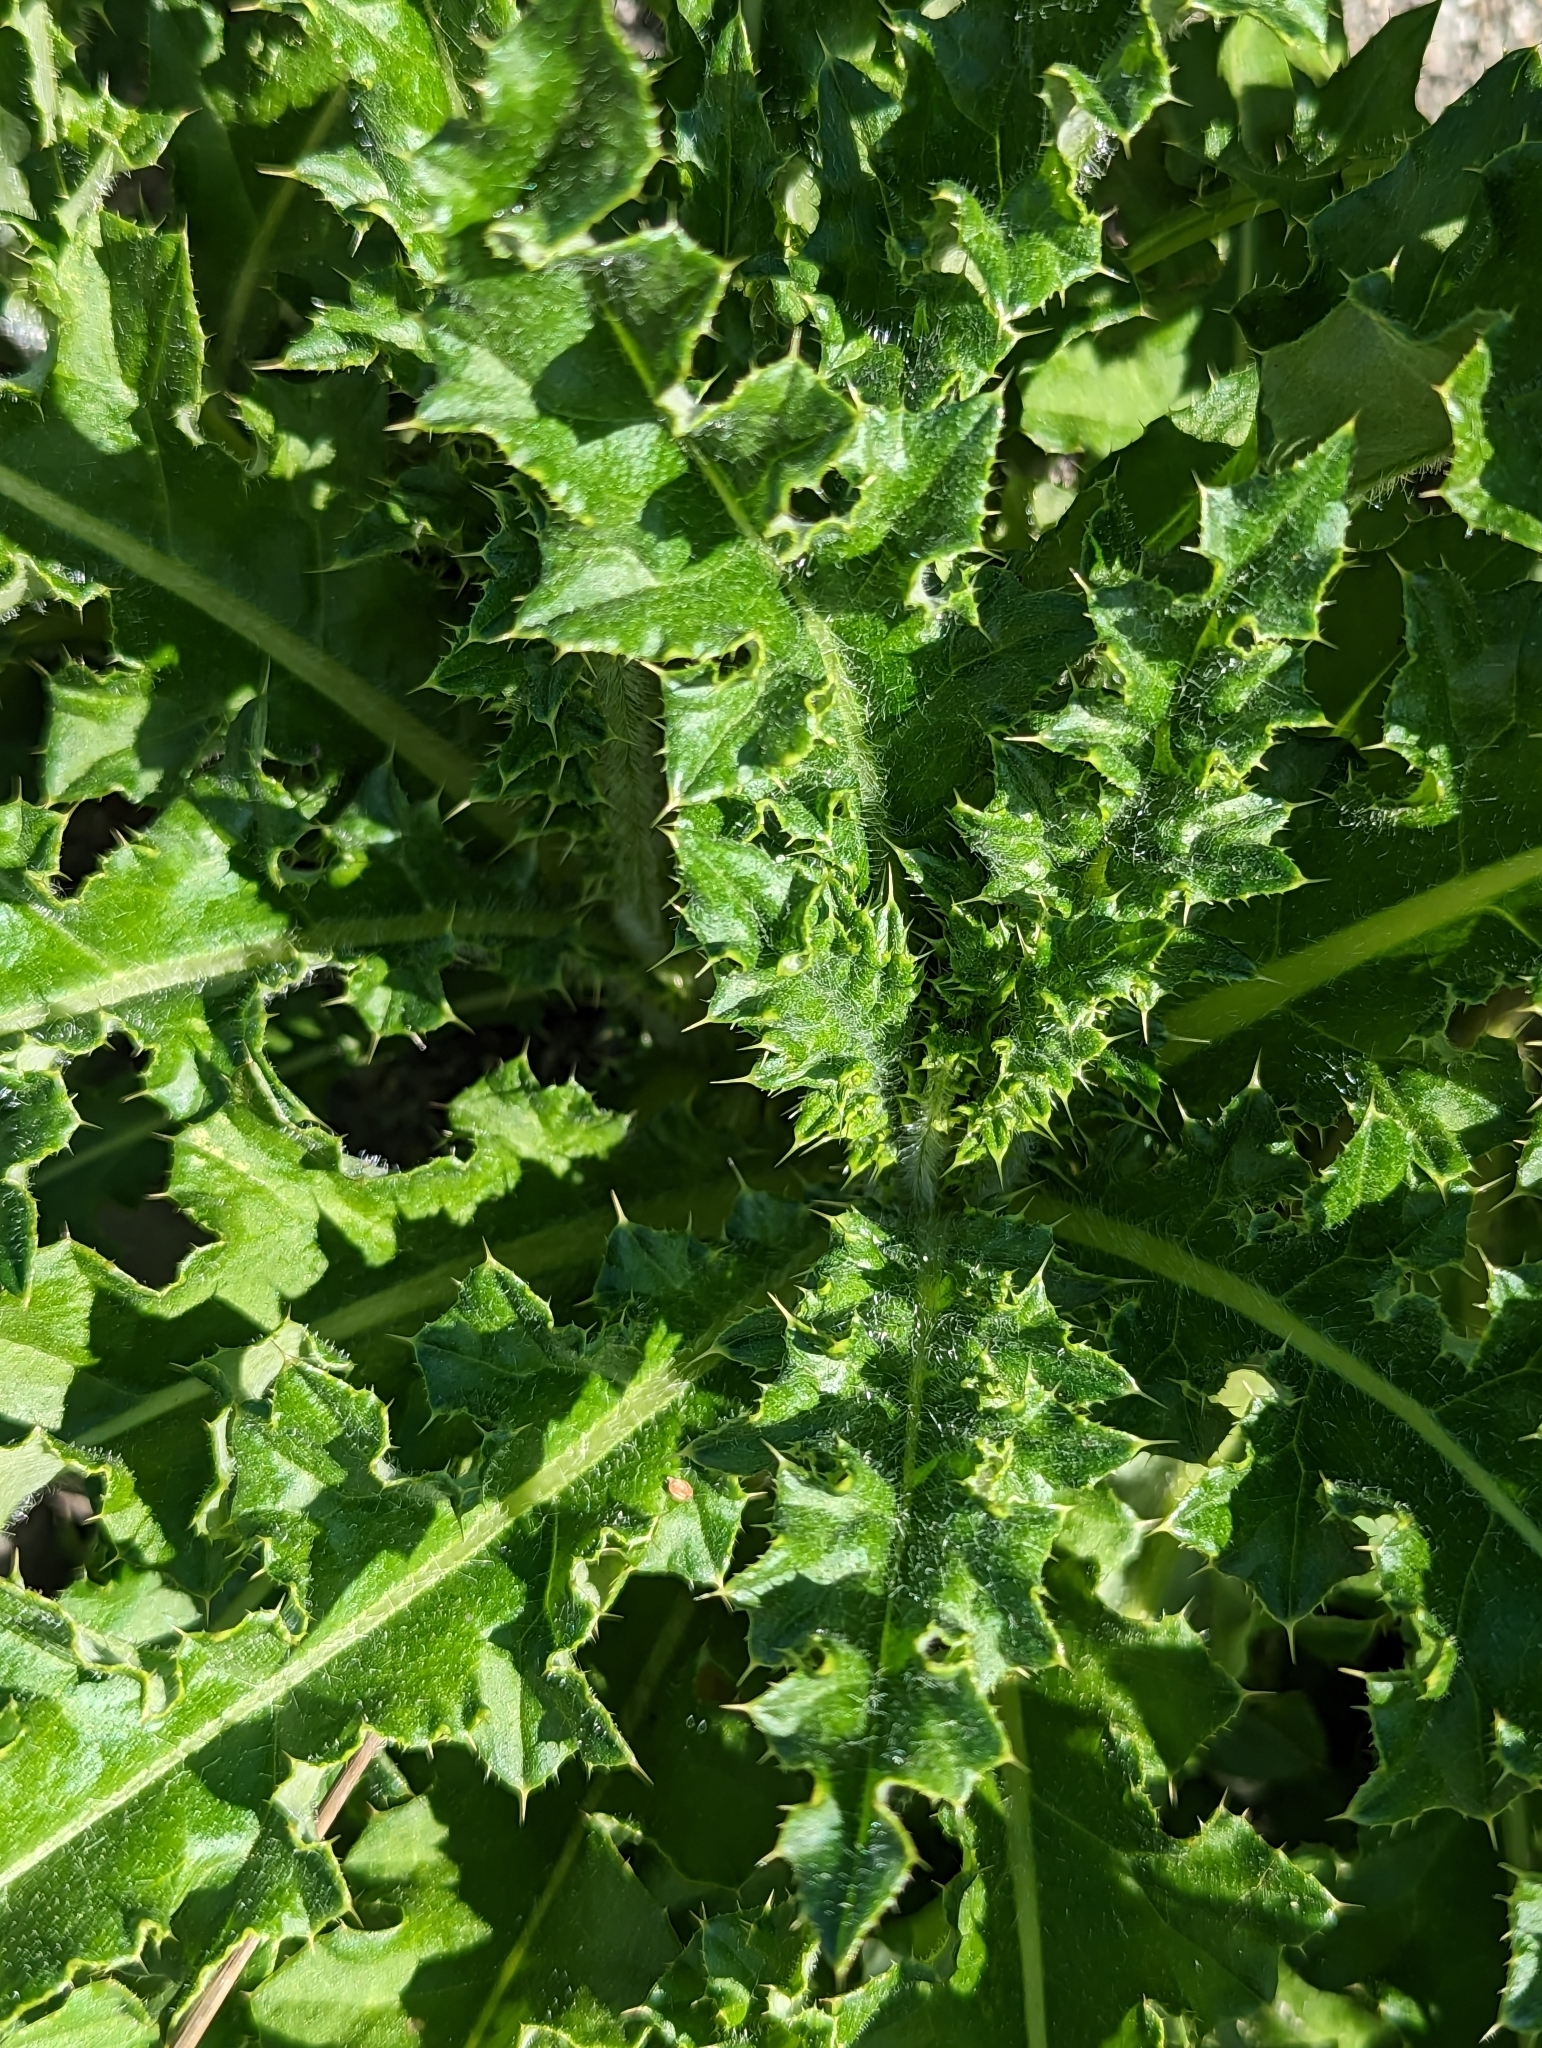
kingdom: Plantae
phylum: Tracheophyta
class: Magnoliopsida
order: Asterales
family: Asteraceae
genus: Cirsium
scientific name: Cirsium arvense
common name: Creeping thistle
